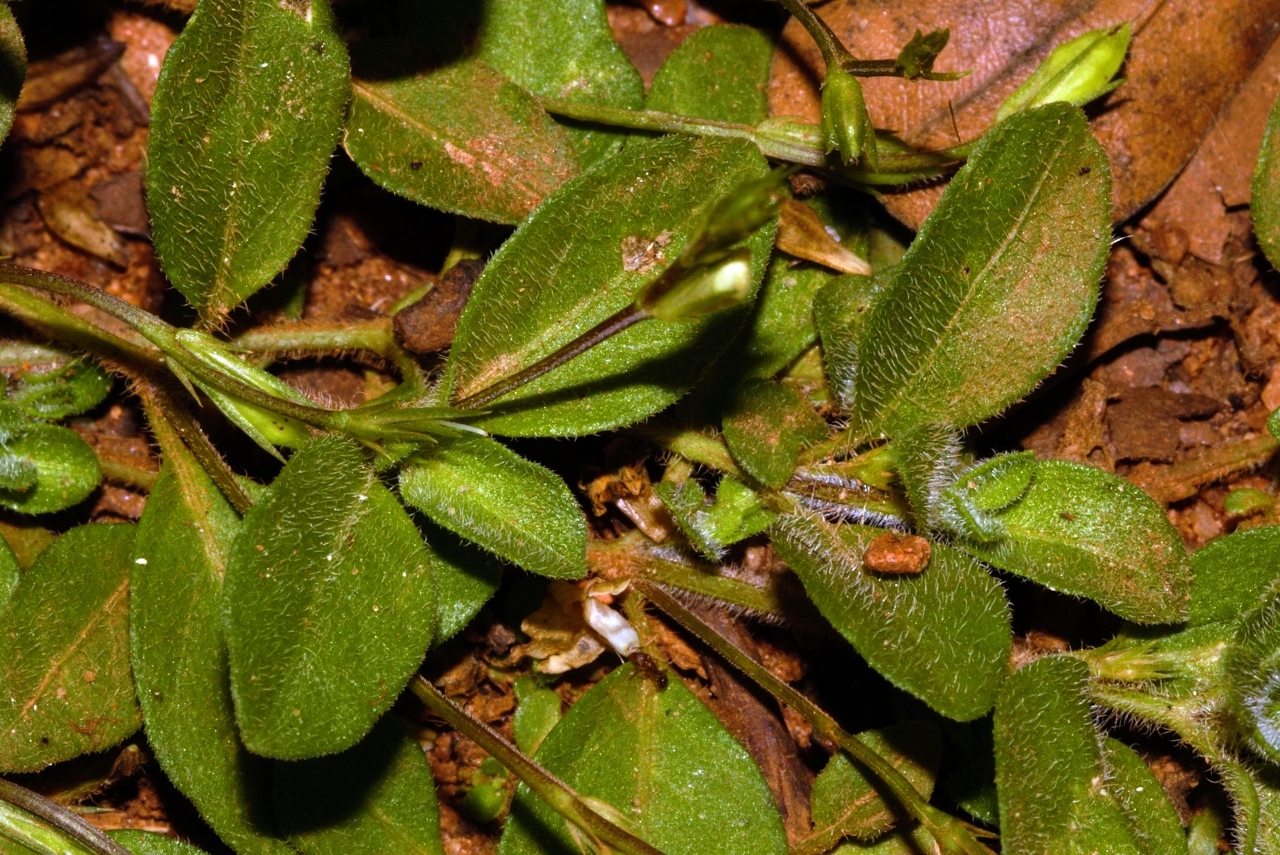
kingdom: Plantae
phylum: Tracheophyta
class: Magnoliopsida
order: Lamiales
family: Acanthaceae
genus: Justicia
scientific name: Justicia anagalloides
